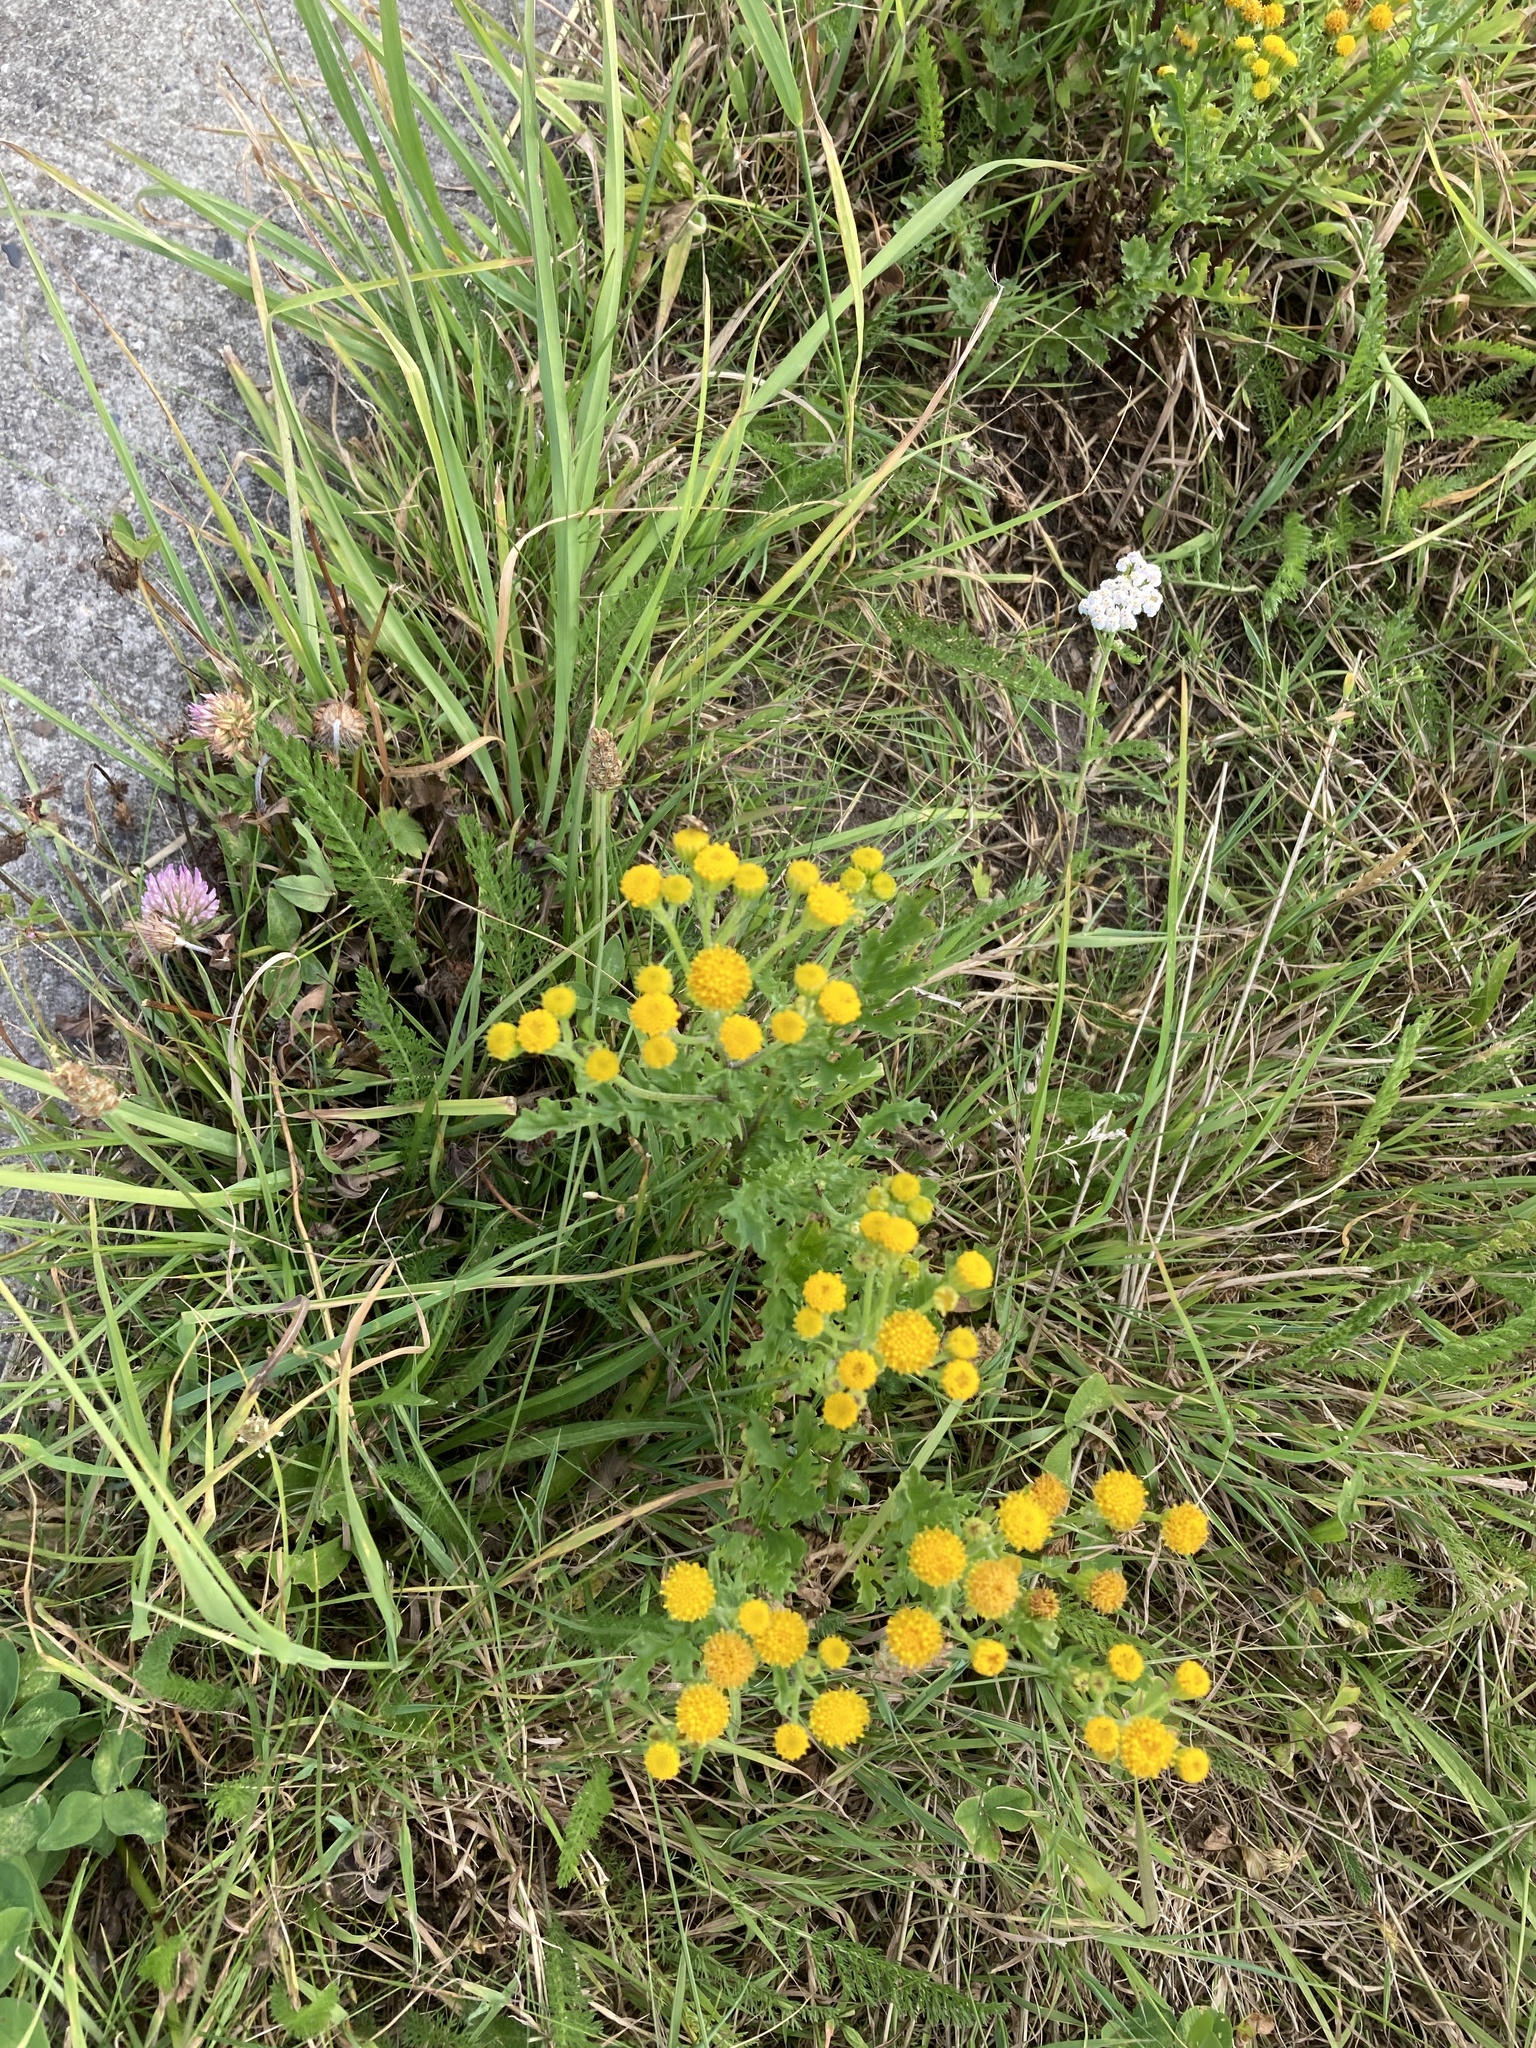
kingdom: Plantae
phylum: Tracheophyta
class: Magnoliopsida
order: Asterales
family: Asteraceae
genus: Jacobaea
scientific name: Jacobaea vulgaris
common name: Stinking willie
